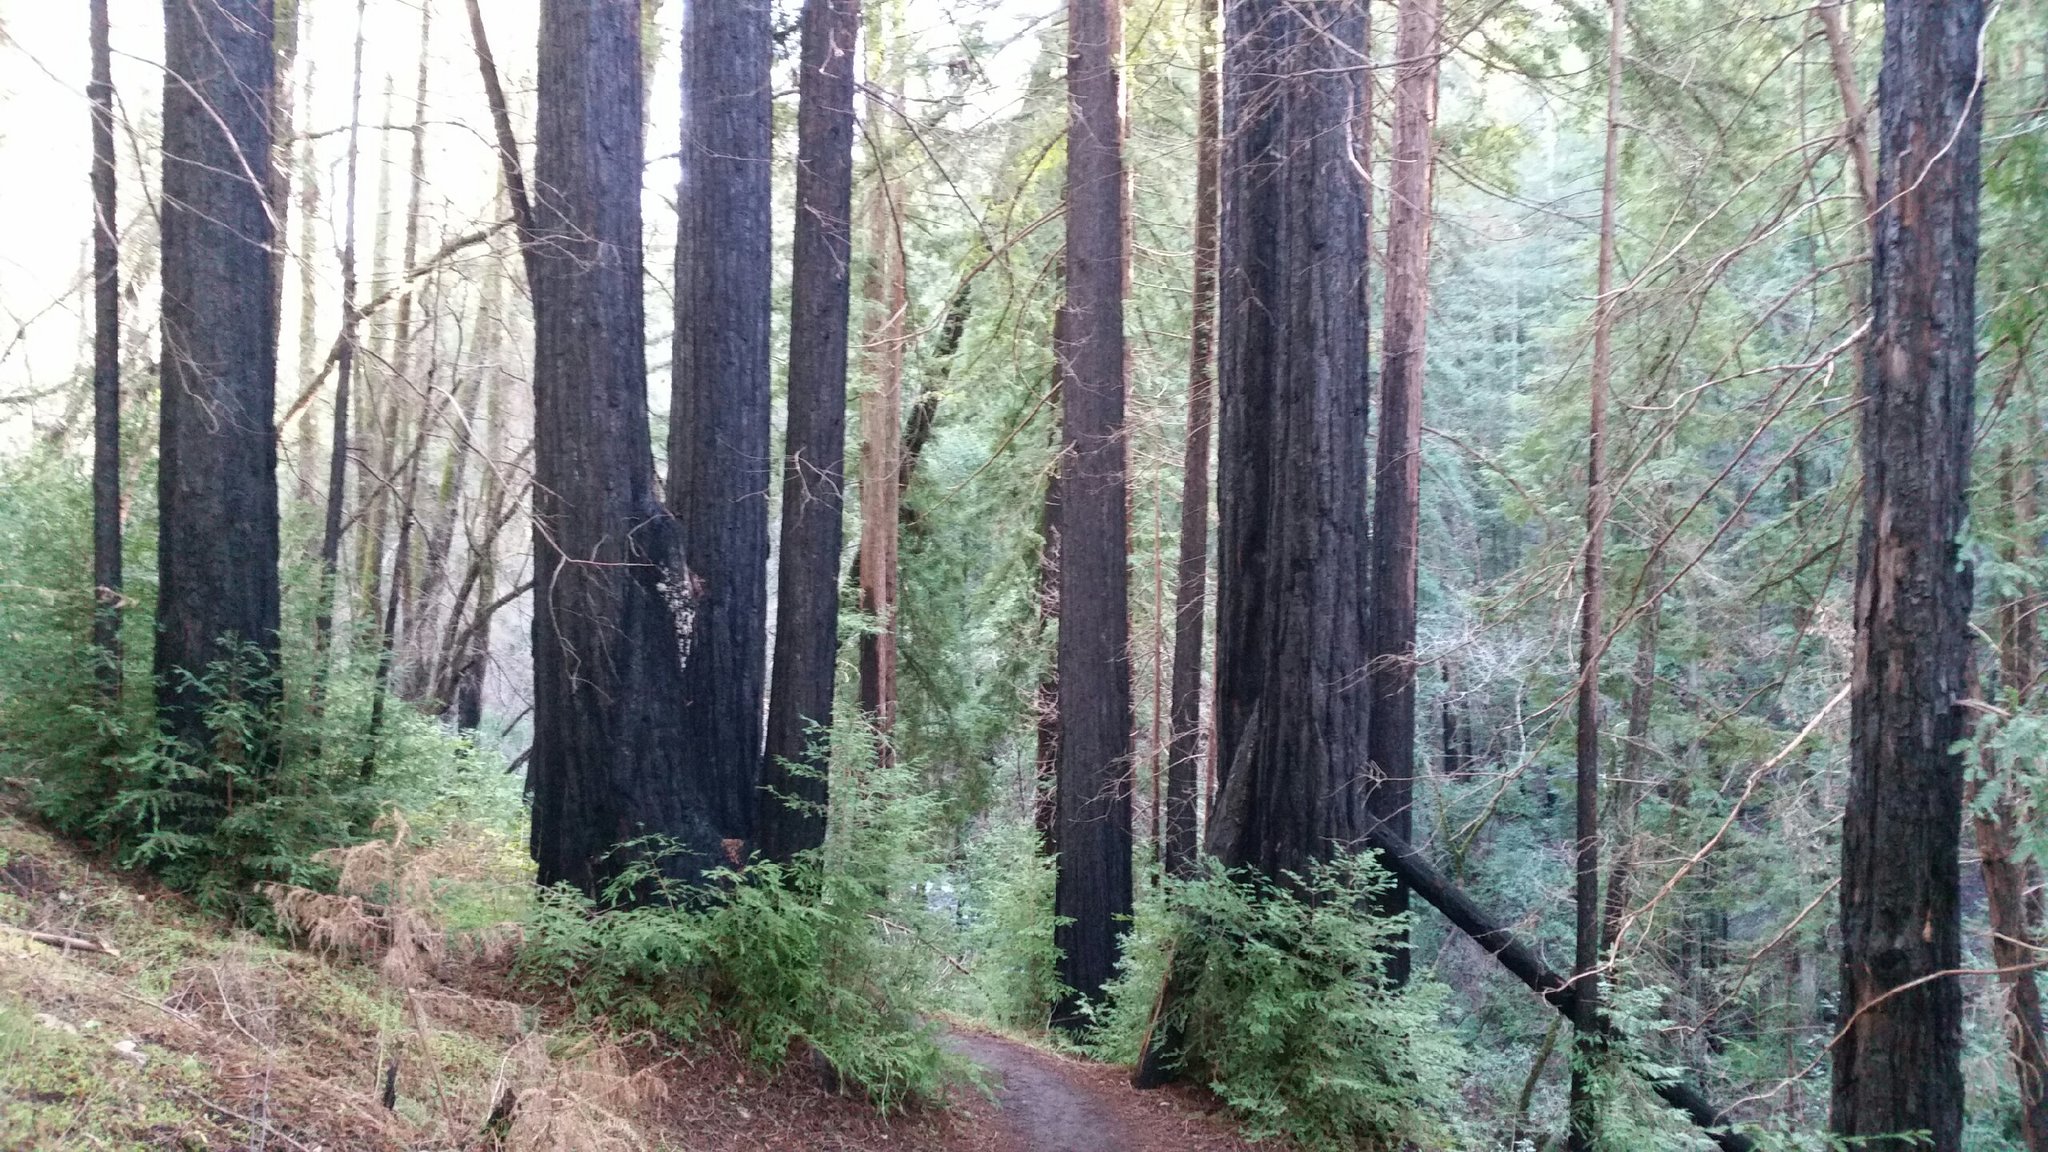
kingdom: Plantae
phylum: Tracheophyta
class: Pinopsida
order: Pinales
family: Cupressaceae
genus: Sequoia
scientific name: Sequoia sempervirens
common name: Coast redwood
